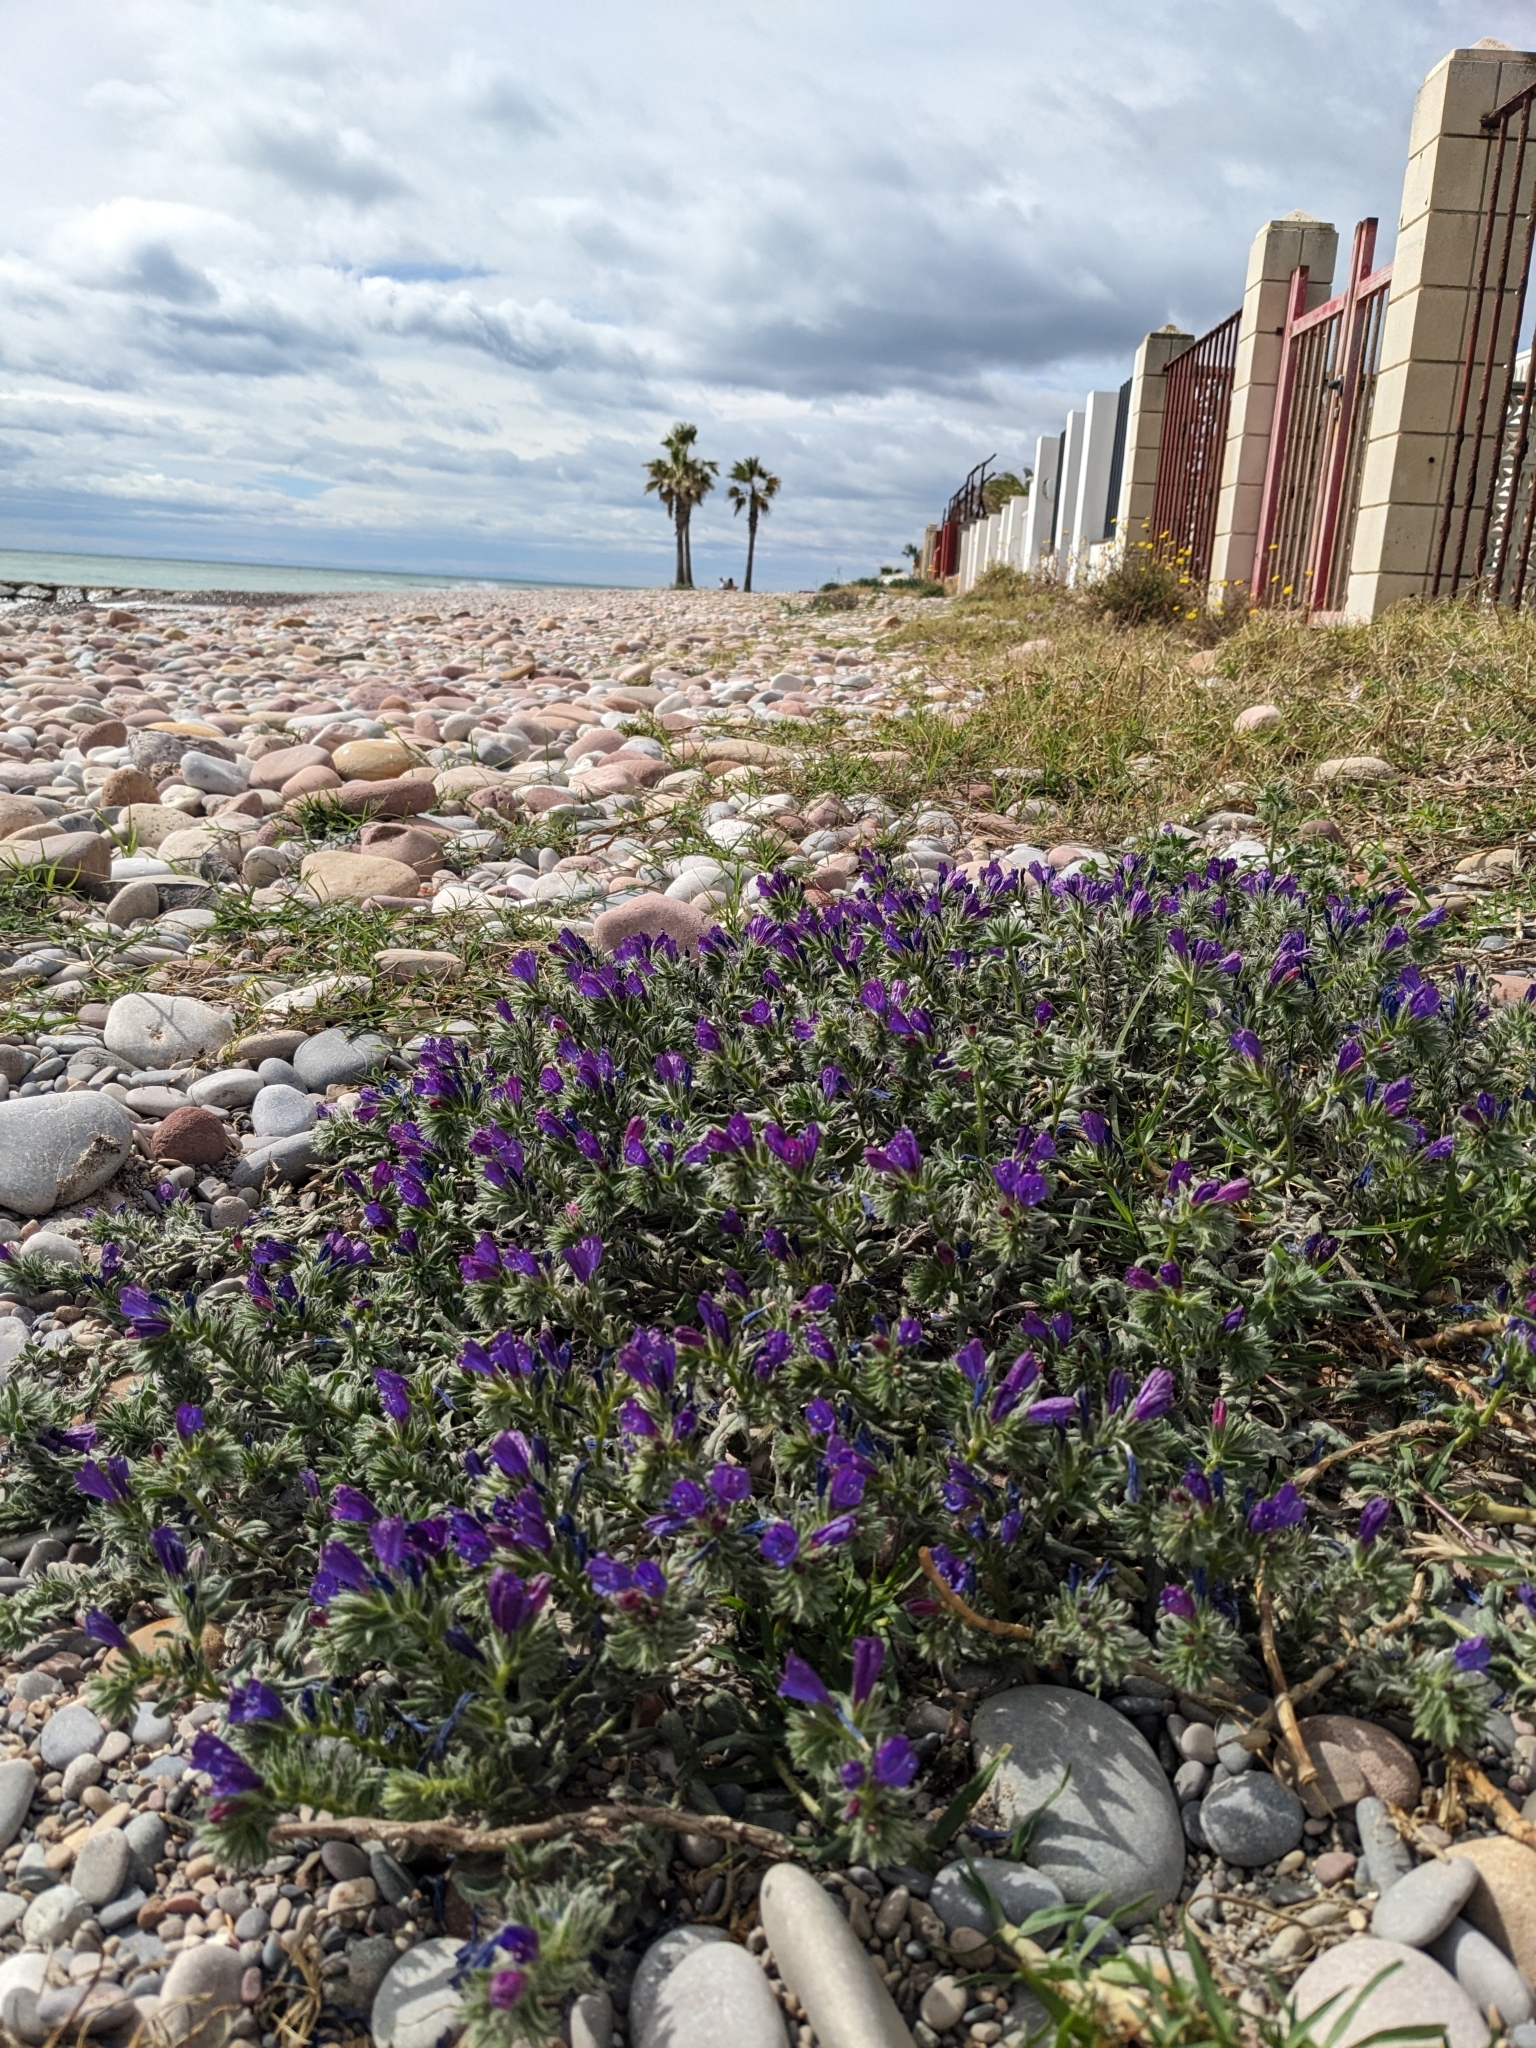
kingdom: Plantae
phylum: Tracheophyta
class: Magnoliopsida
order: Boraginales
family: Boraginaceae
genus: Echium
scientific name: Echium sabulicola
